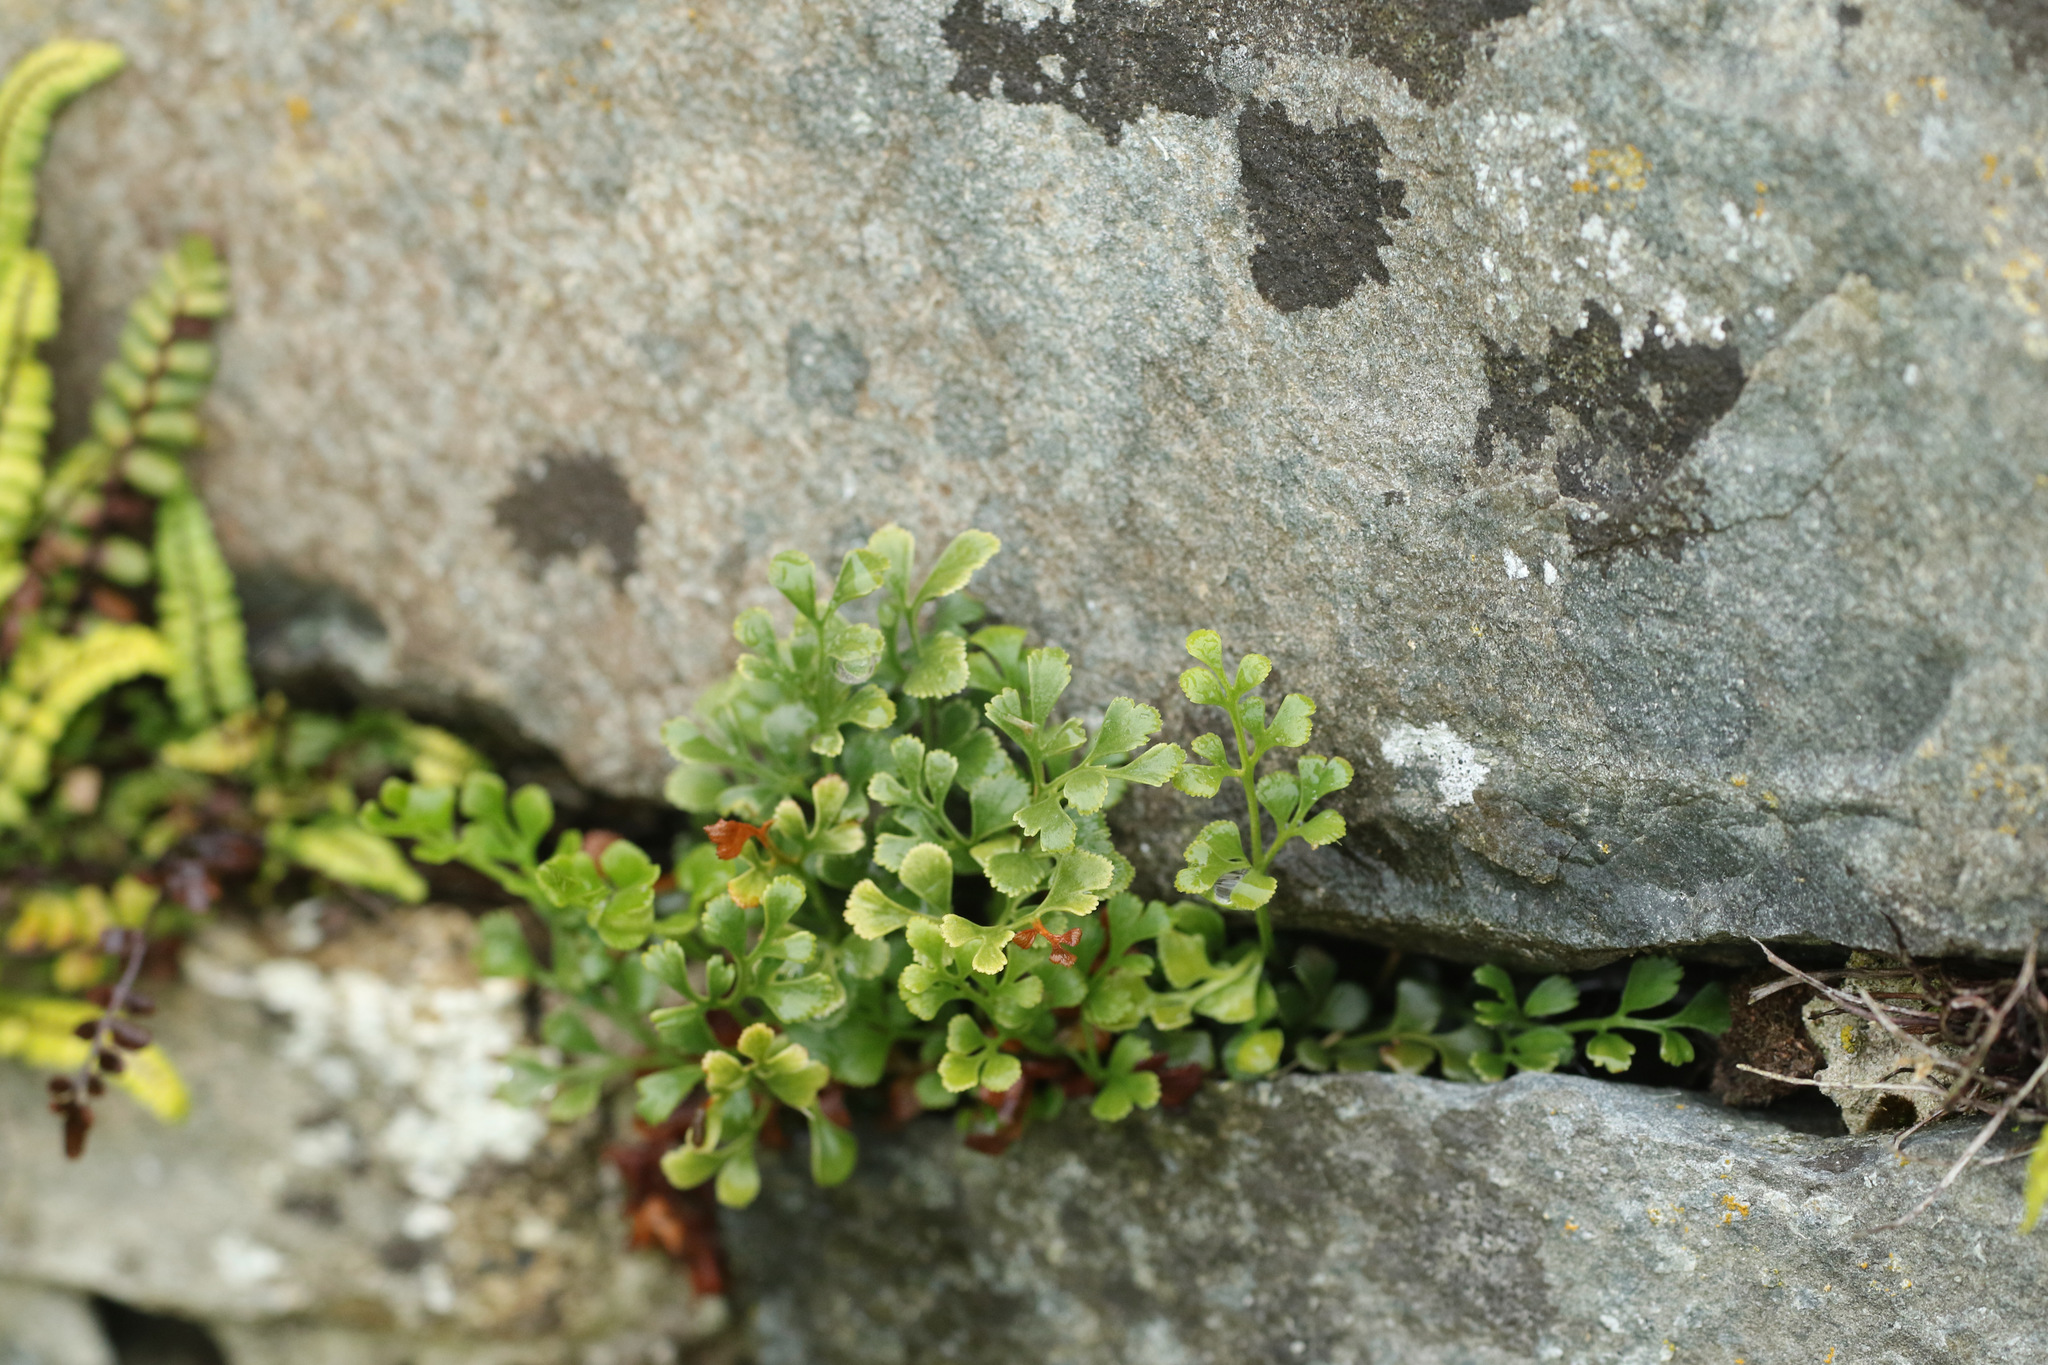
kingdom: Plantae
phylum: Tracheophyta
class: Polypodiopsida
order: Polypodiales
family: Aspleniaceae
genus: Asplenium
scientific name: Asplenium ruta-muraria
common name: Wall-rue
